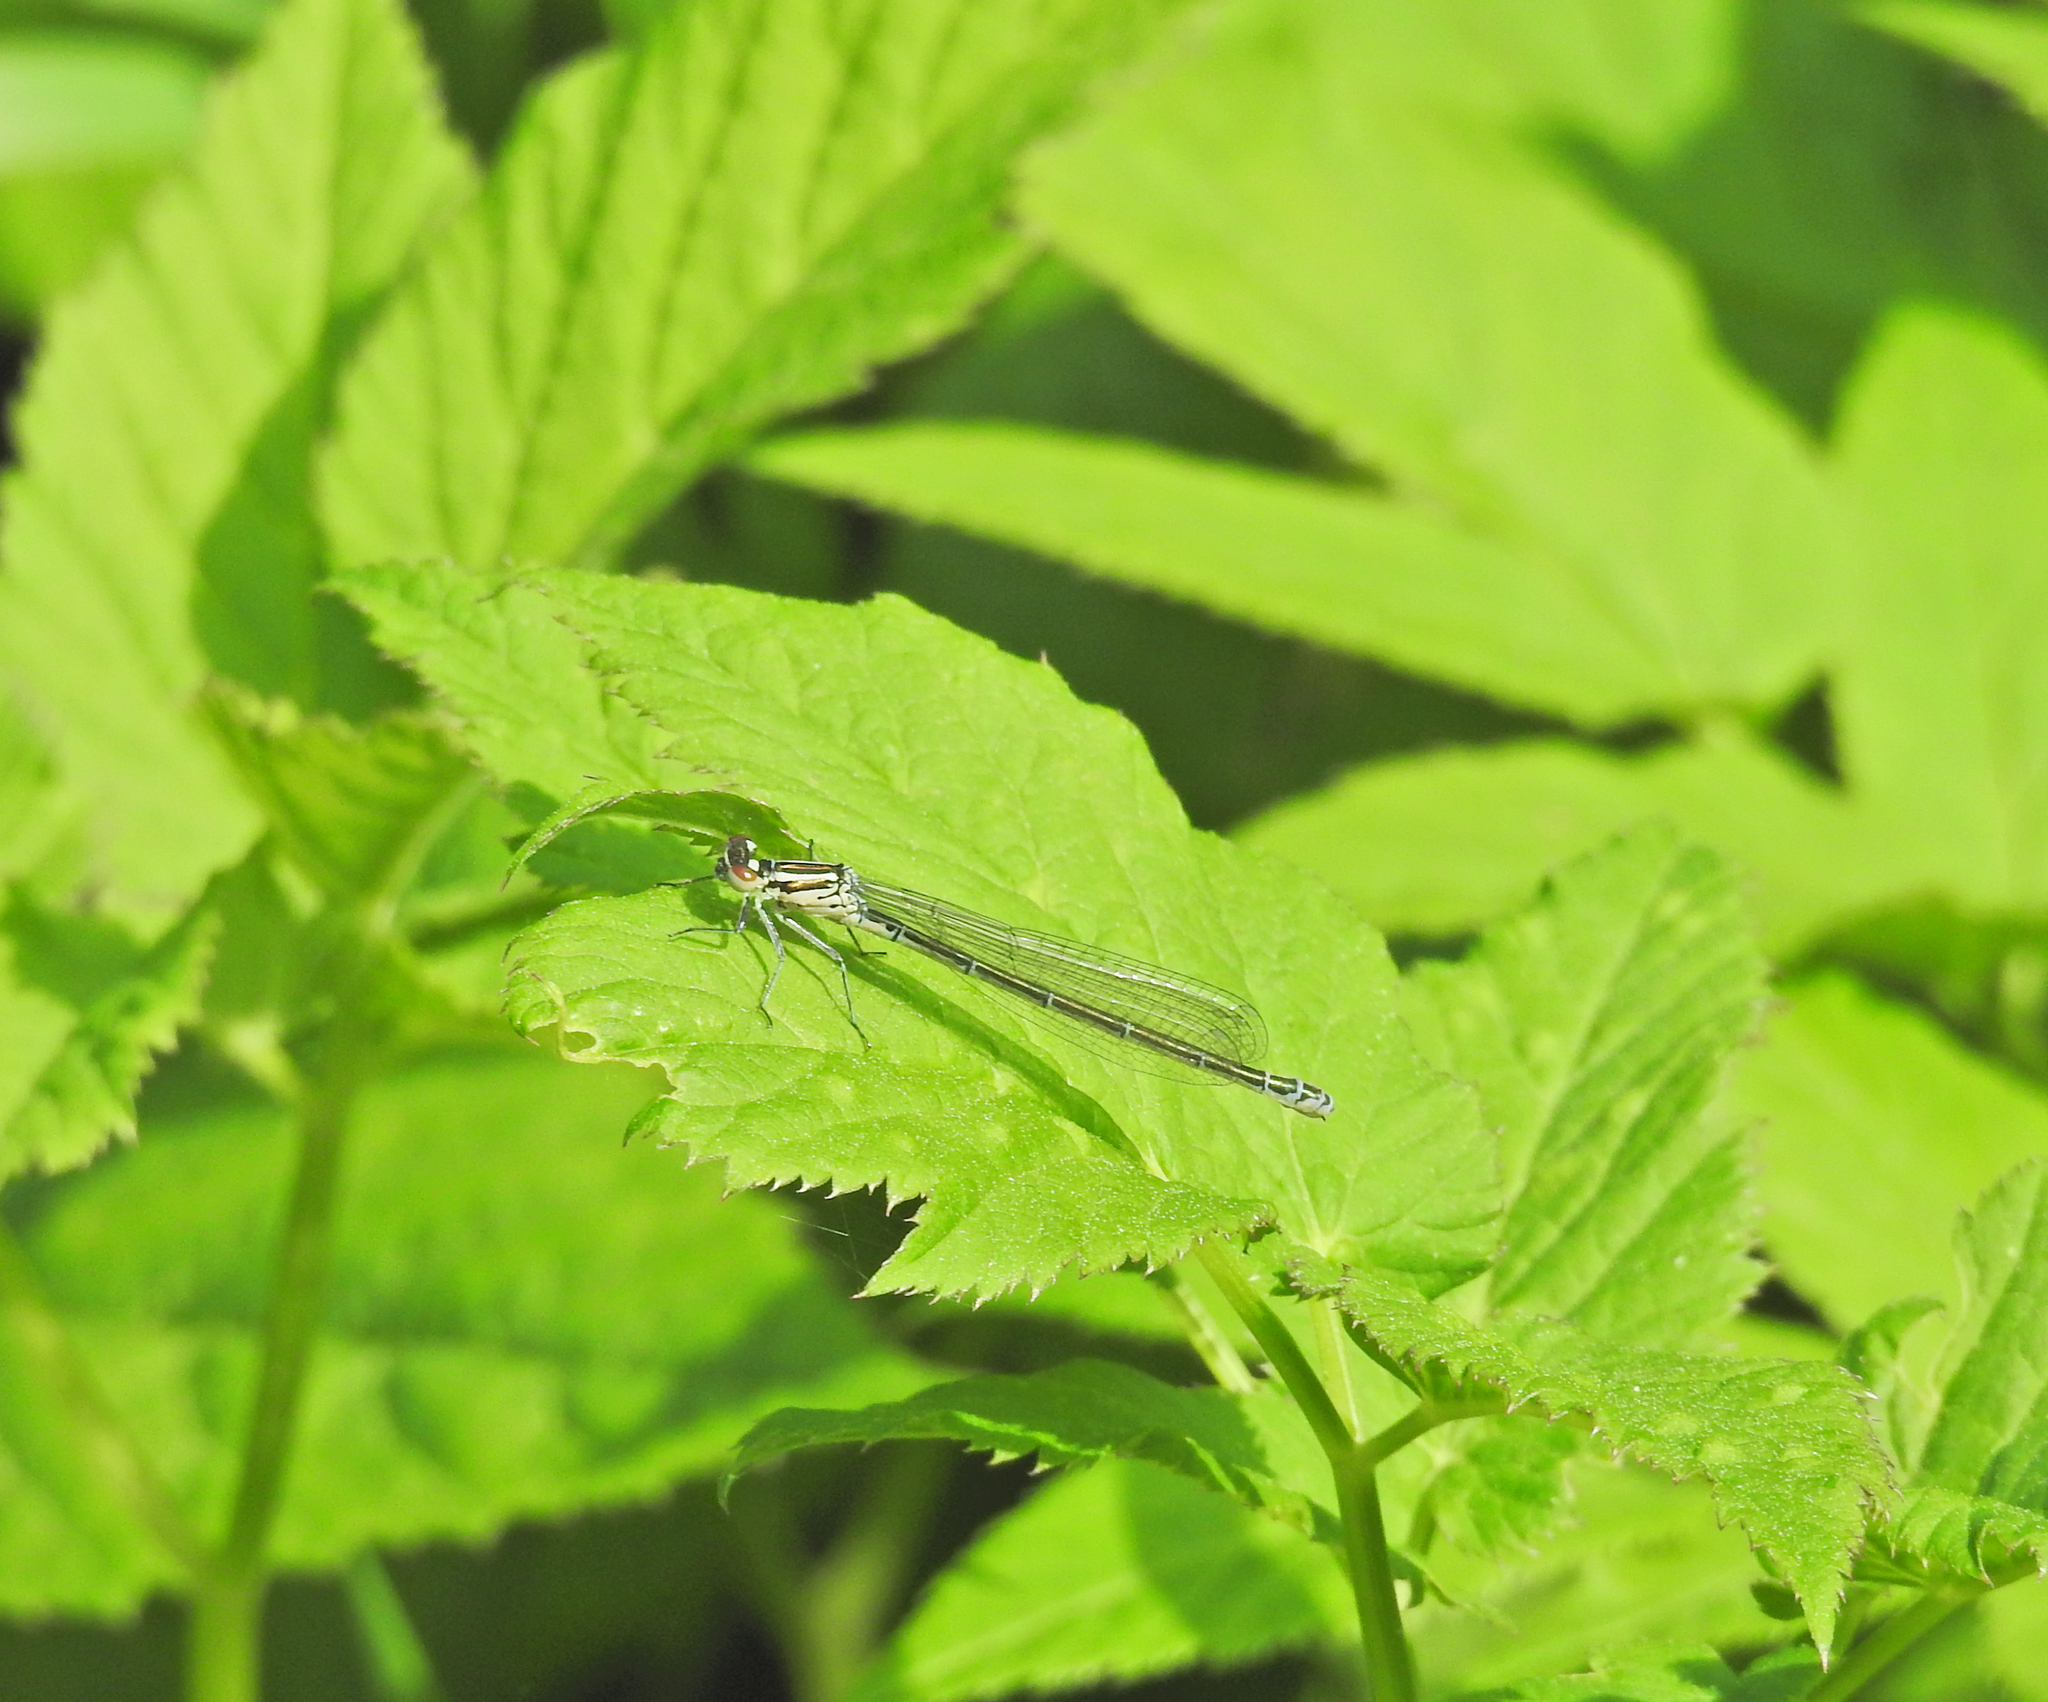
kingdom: Animalia
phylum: Arthropoda
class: Insecta
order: Odonata
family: Coenagrionidae
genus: Coenagrion
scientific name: Coenagrion puella
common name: Azure damselfly
